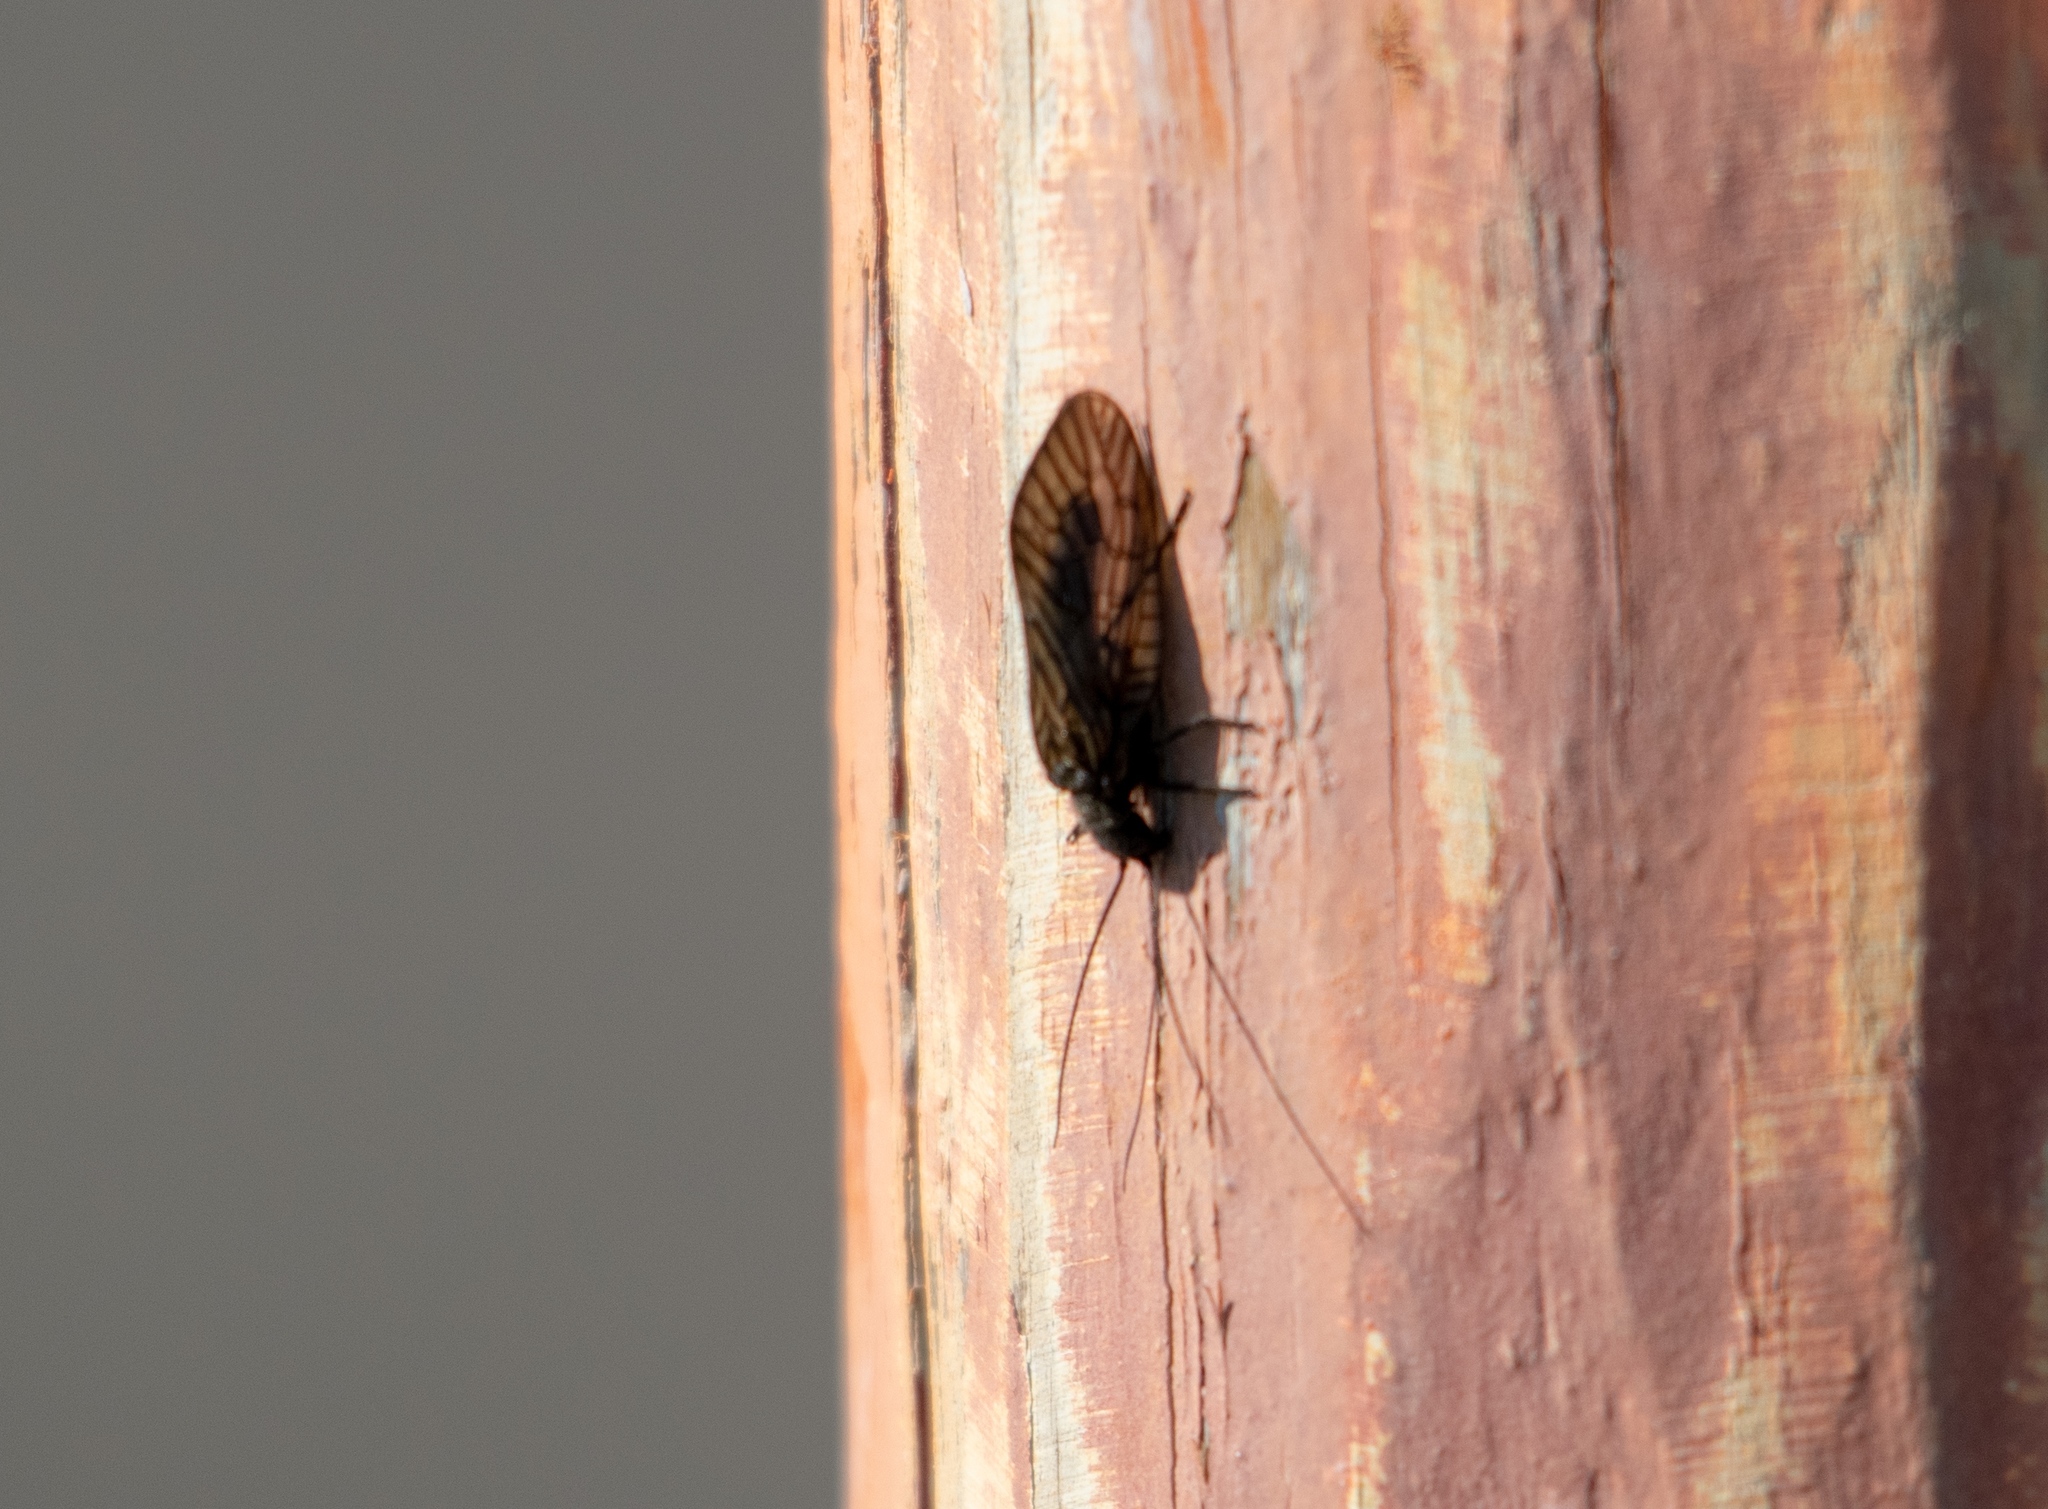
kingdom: Animalia
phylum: Arthropoda
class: Insecta
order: Megaloptera
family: Sialidae
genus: Sialis
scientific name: Sialis
